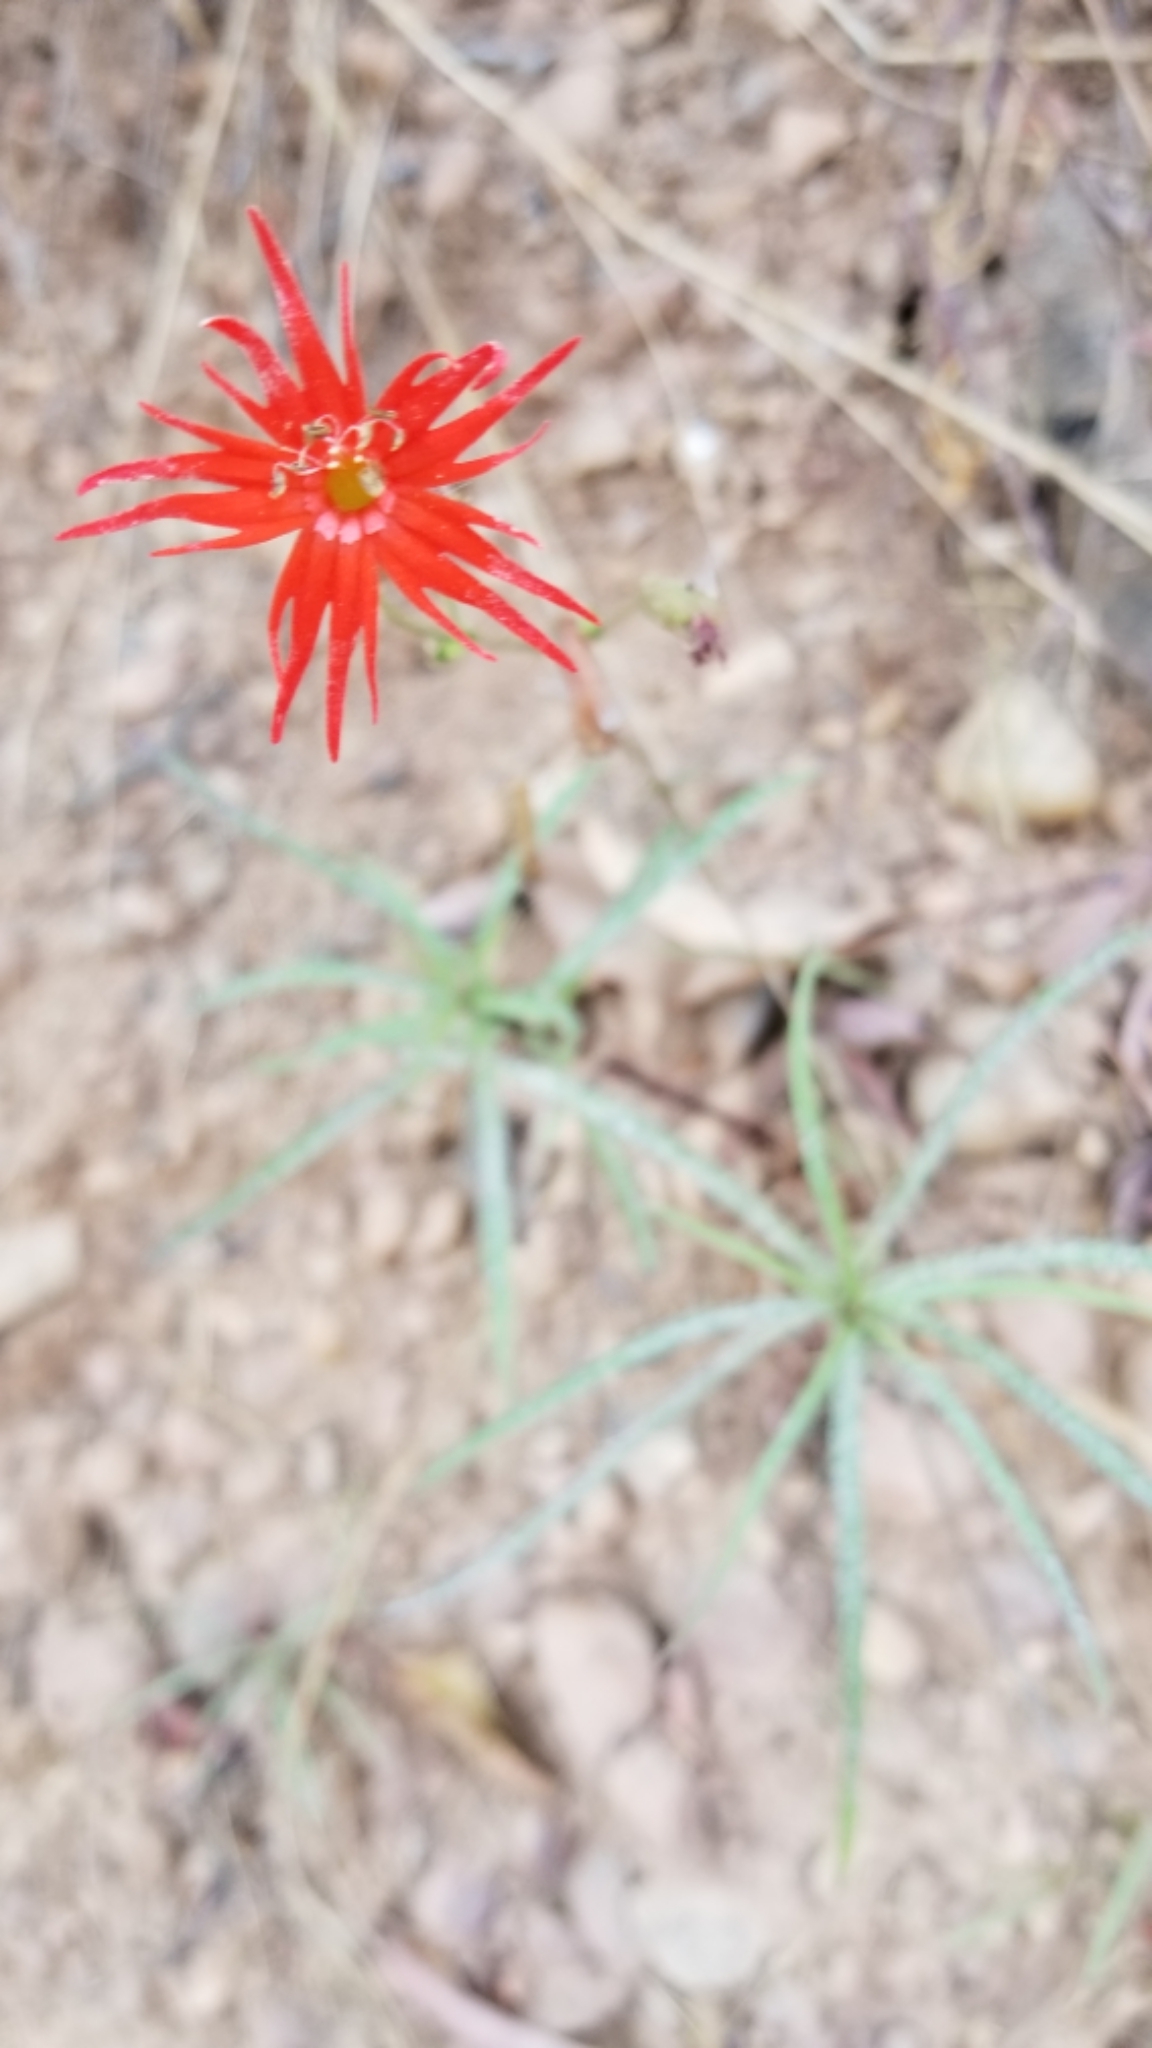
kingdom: Plantae
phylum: Tracheophyta
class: Magnoliopsida
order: Caryophyllales
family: Caryophyllaceae
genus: Silene
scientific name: Silene laciniata
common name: Indian-pink
